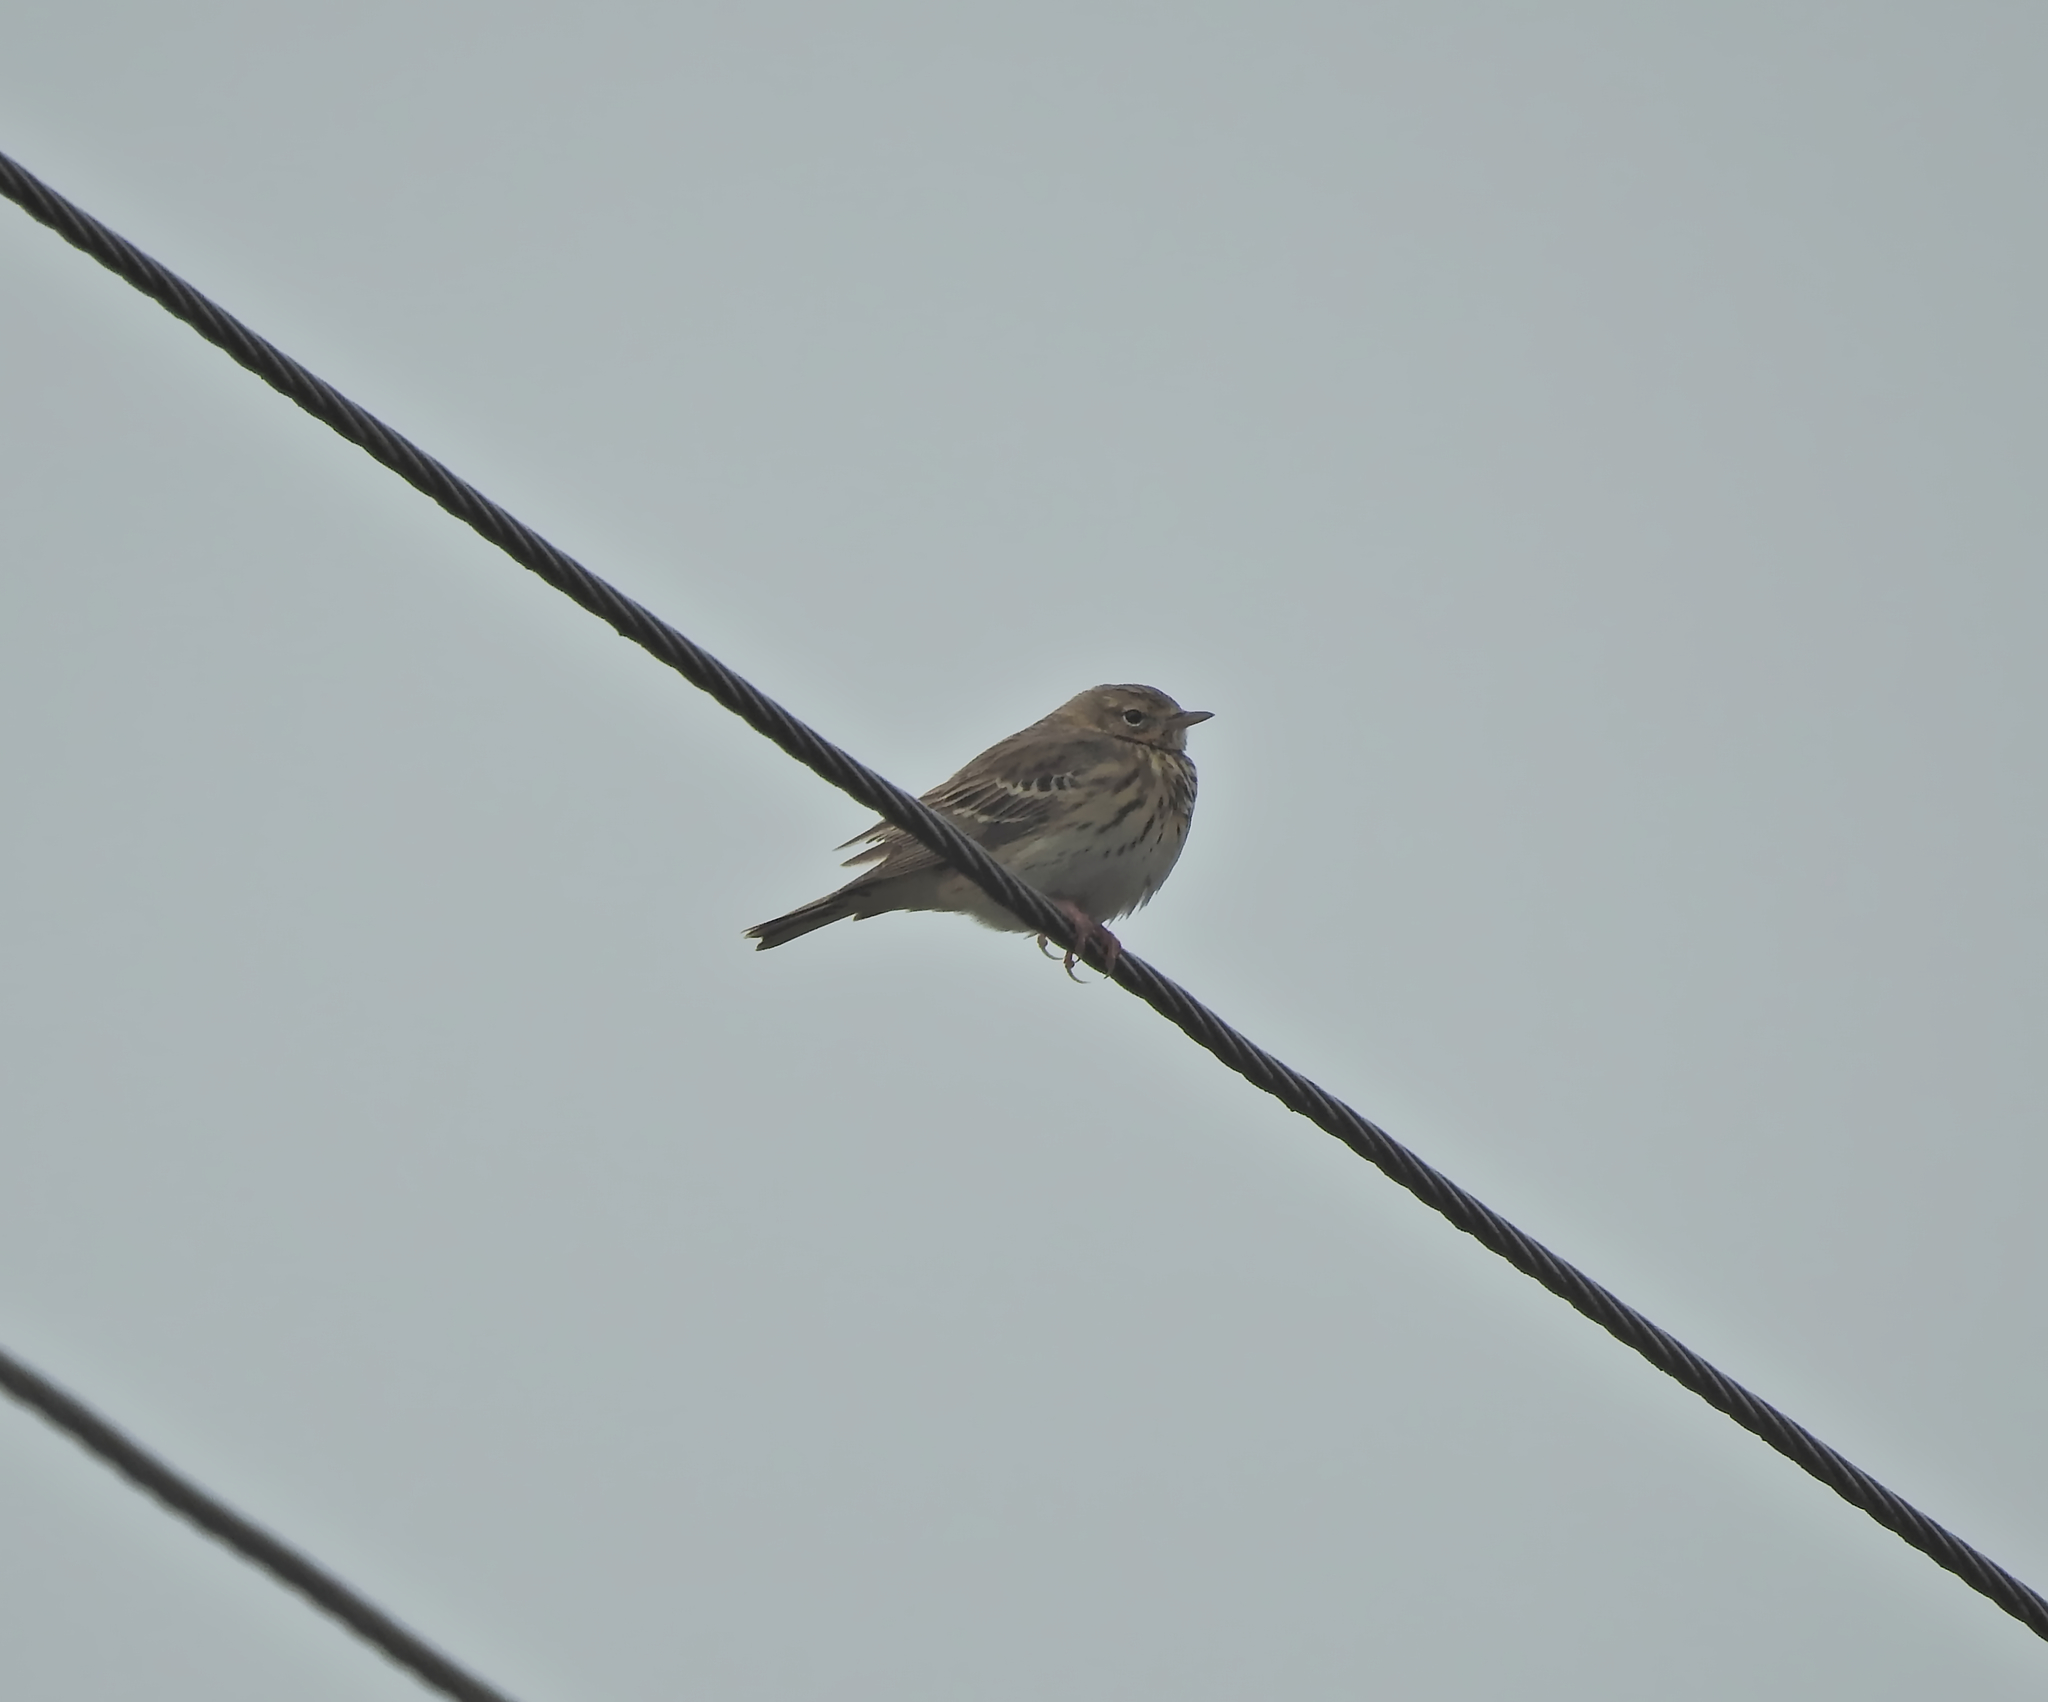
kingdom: Animalia
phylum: Chordata
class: Aves
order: Passeriformes
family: Motacillidae
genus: Anthus
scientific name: Anthus trivialis
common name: Tree pipit
